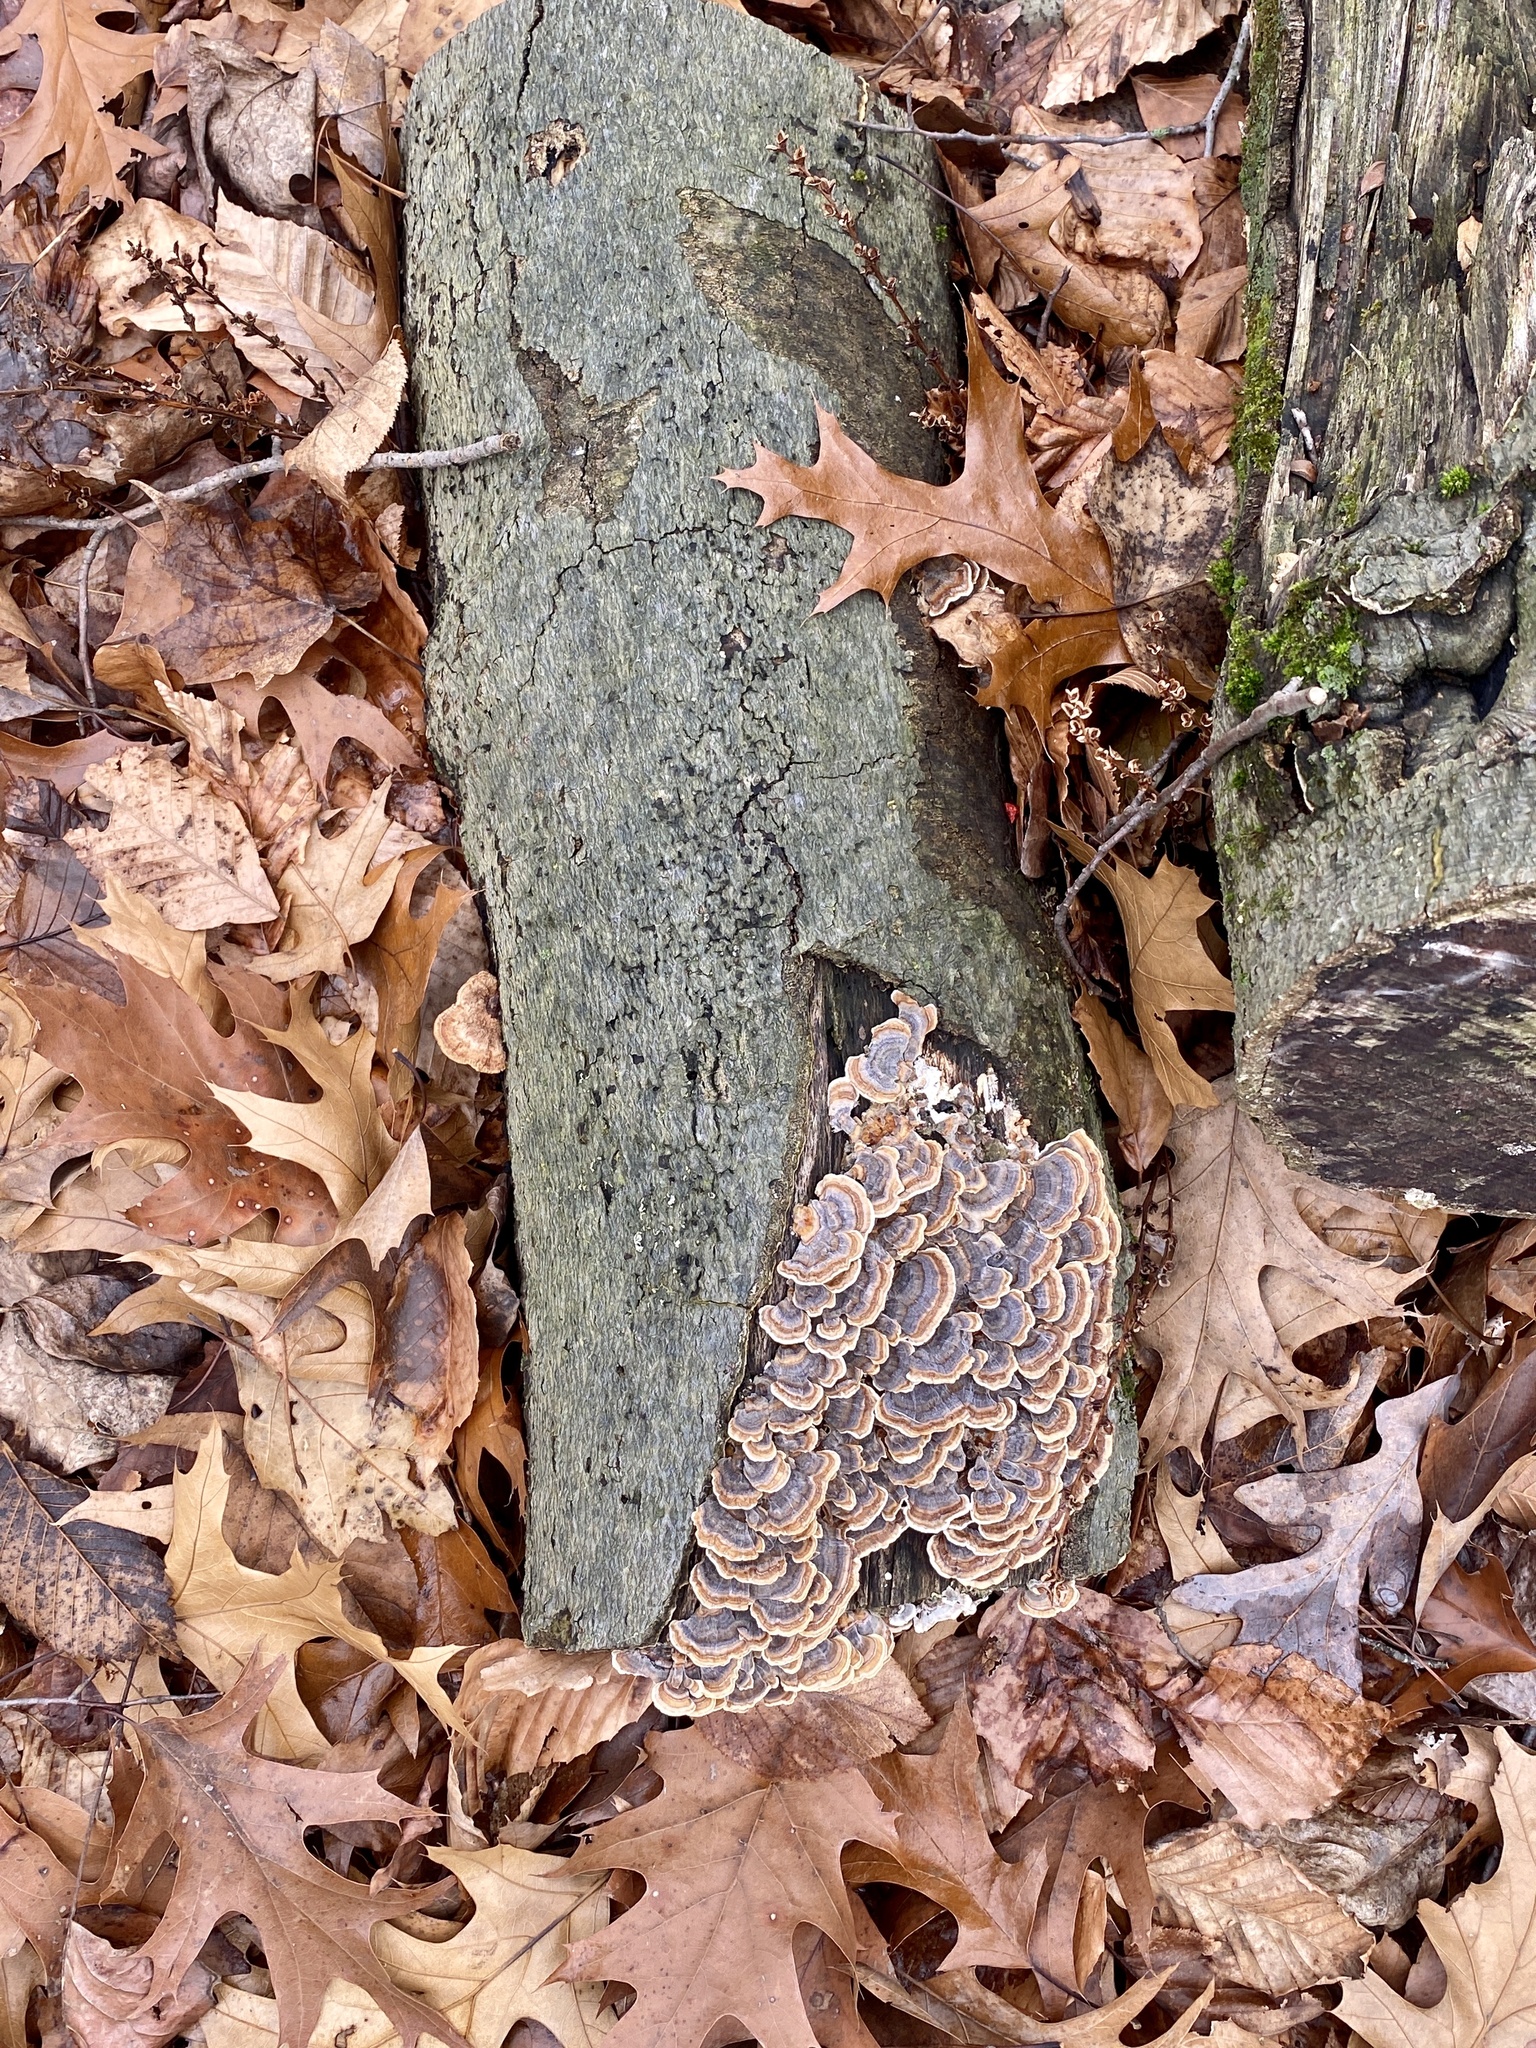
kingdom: Fungi
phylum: Basidiomycota
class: Agaricomycetes
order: Polyporales
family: Polyporaceae
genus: Trametes
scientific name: Trametes versicolor
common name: Turkeytail
